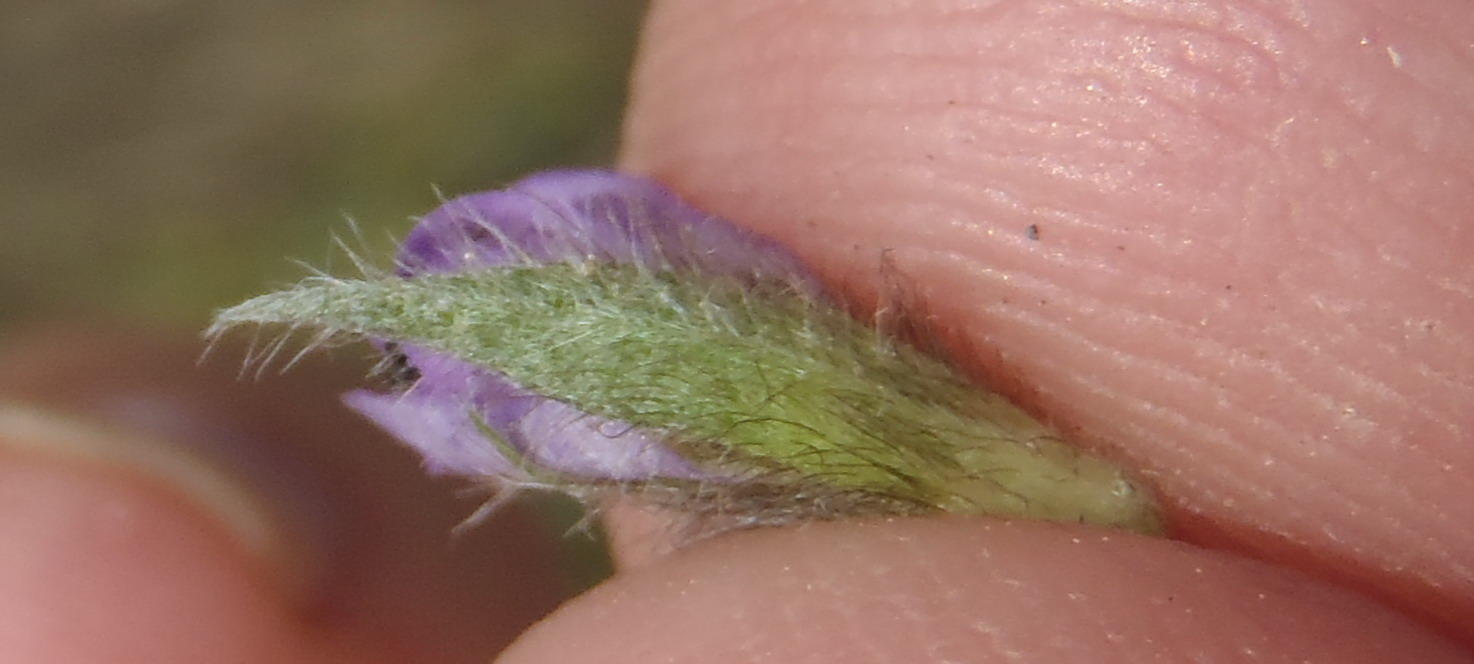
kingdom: Plantae
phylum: Tracheophyta
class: Magnoliopsida
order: Fabales
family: Fabaceae
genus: Psoralea
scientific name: Psoralea swartbergensis
